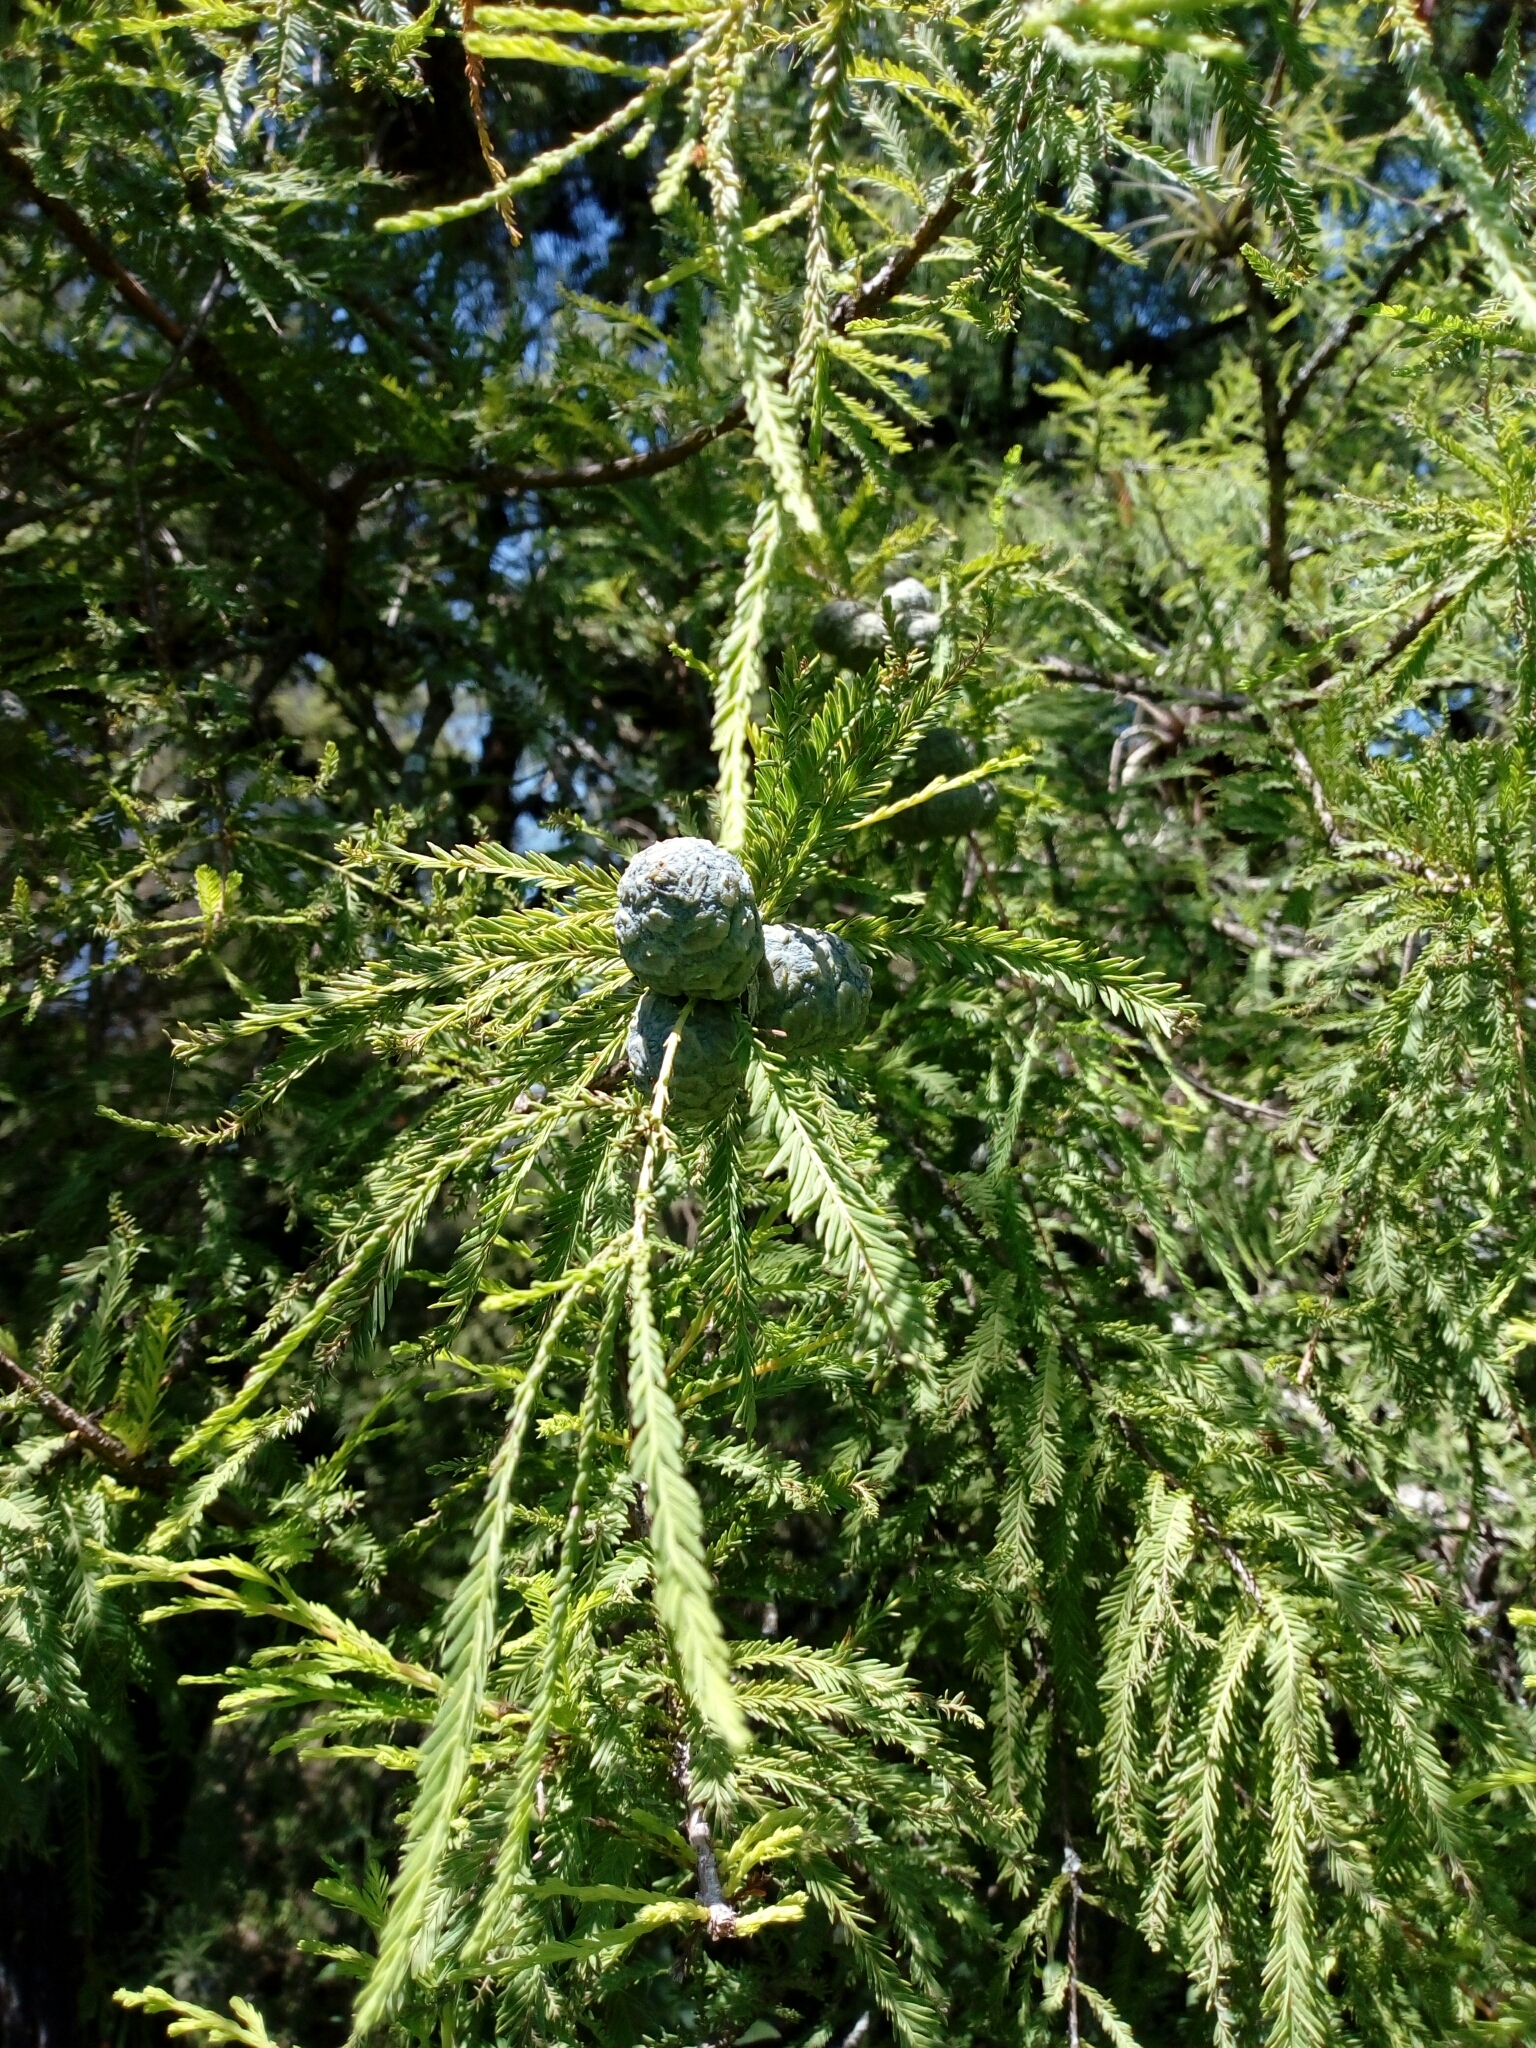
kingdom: Plantae
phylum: Tracheophyta
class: Pinopsida
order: Pinales
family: Cupressaceae
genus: Taxodium
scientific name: Taxodium mucronatum
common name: Montezume bald cypress
